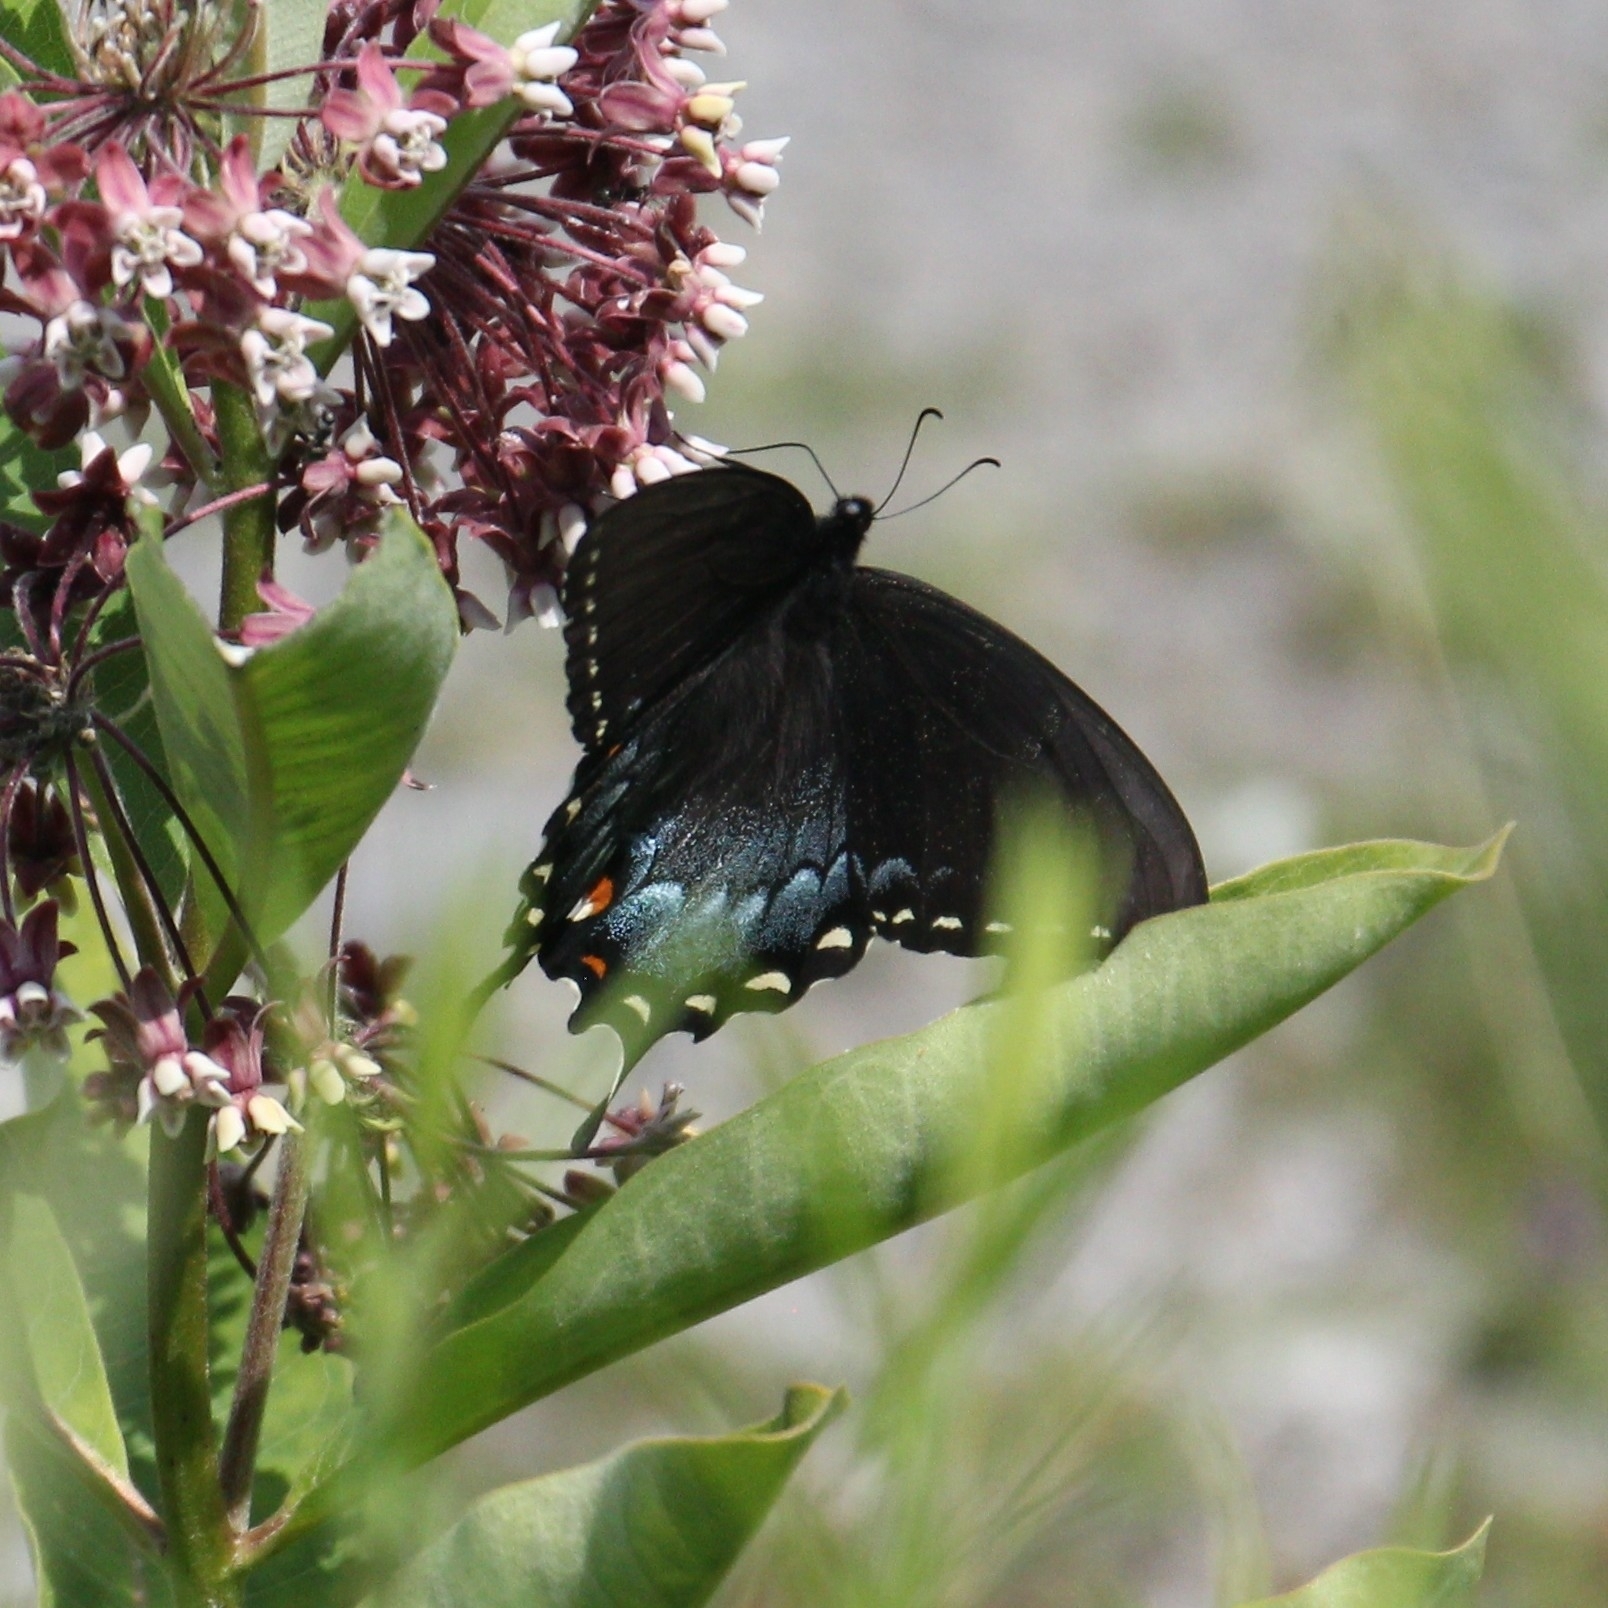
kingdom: Animalia
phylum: Arthropoda
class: Insecta
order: Lepidoptera
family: Papilionidae
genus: Papilio
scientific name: Papilio glaucus
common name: Tiger swallowtail
